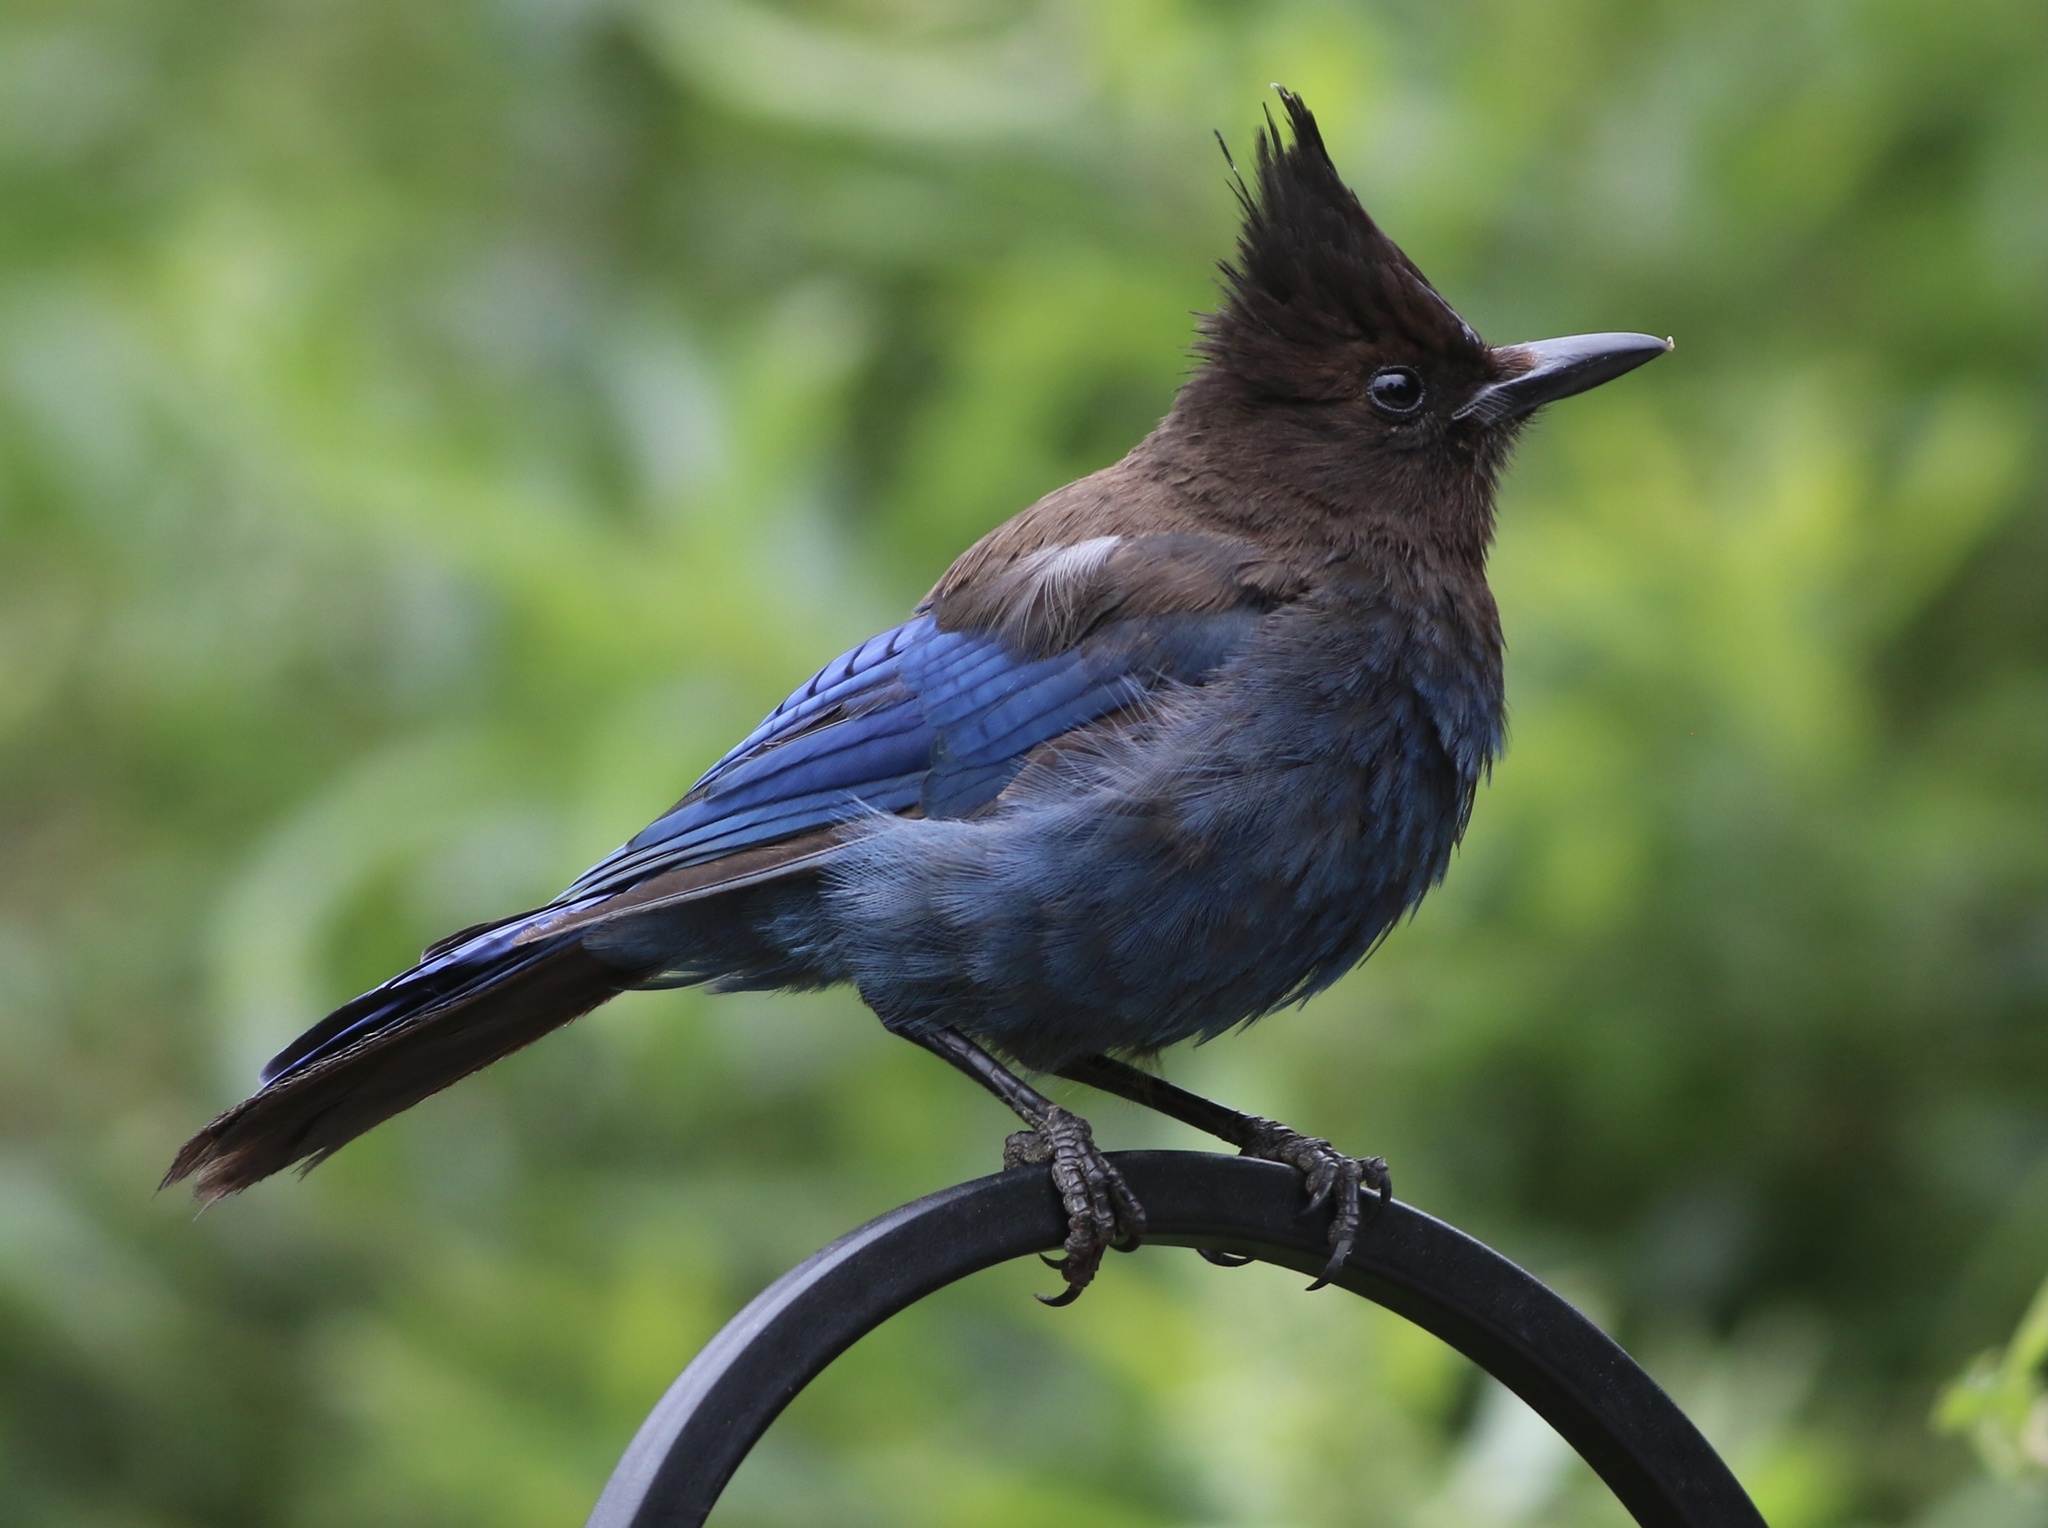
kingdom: Animalia
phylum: Chordata
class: Aves
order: Passeriformes
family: Corvidae
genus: Cyanocitta
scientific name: Cyanocitta stelleri
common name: Steller's jay
